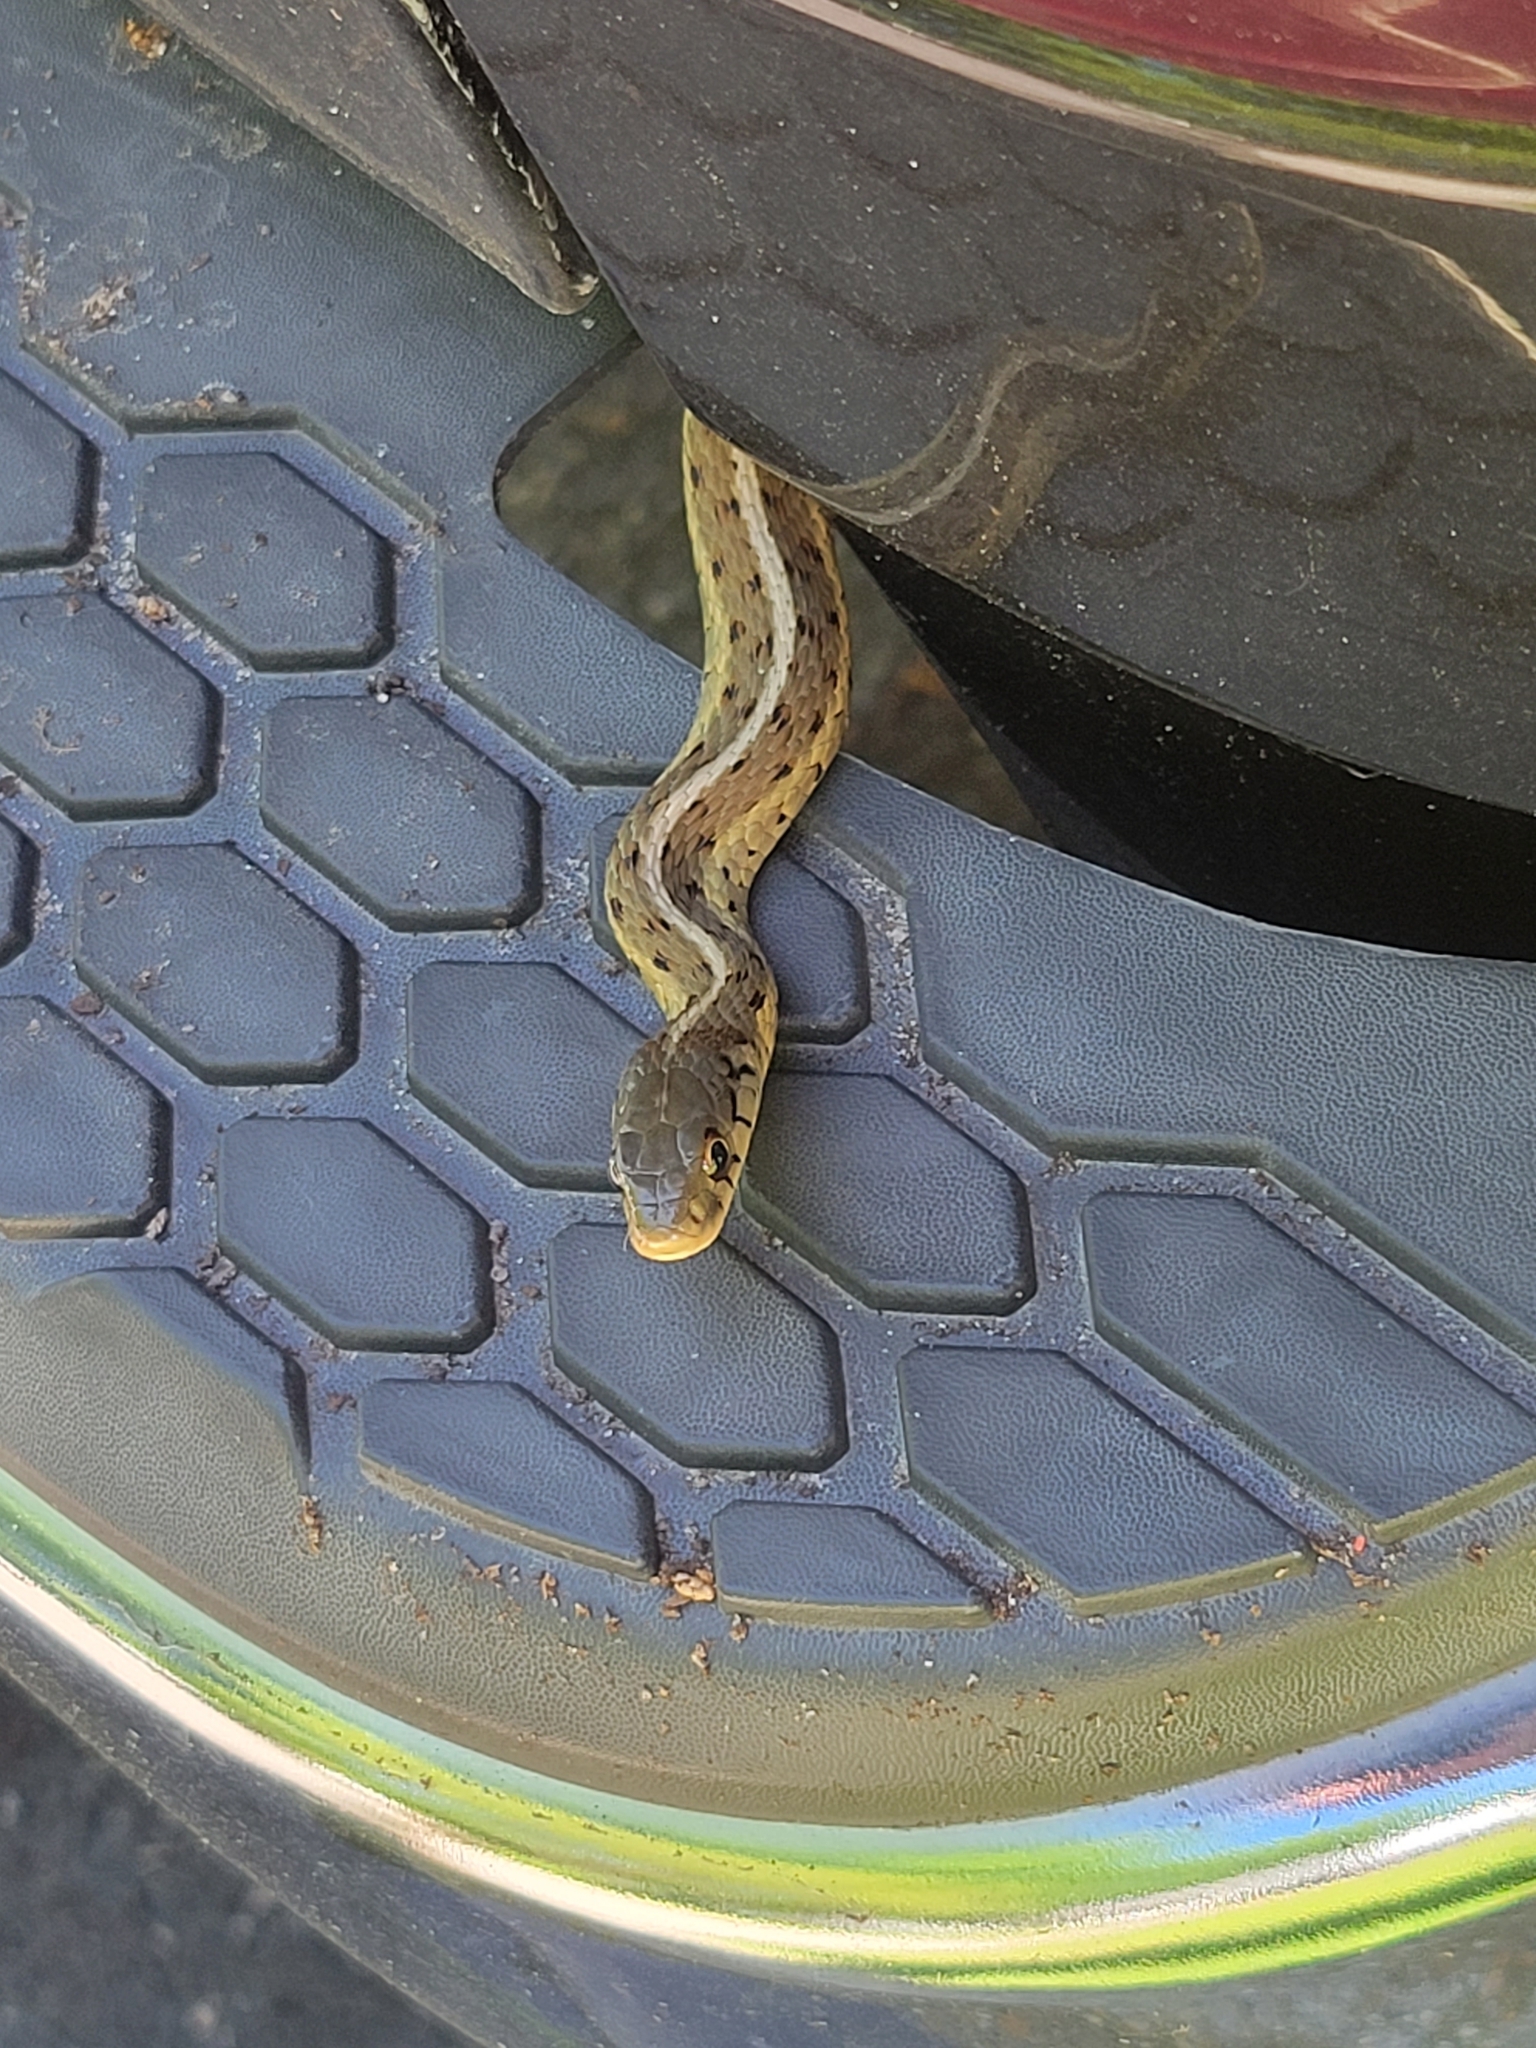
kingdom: Animalia
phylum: Chordata
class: Squamata
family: Colubridae
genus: Thamnophis
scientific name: Thamnophis sirtalis
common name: Common garter snake
